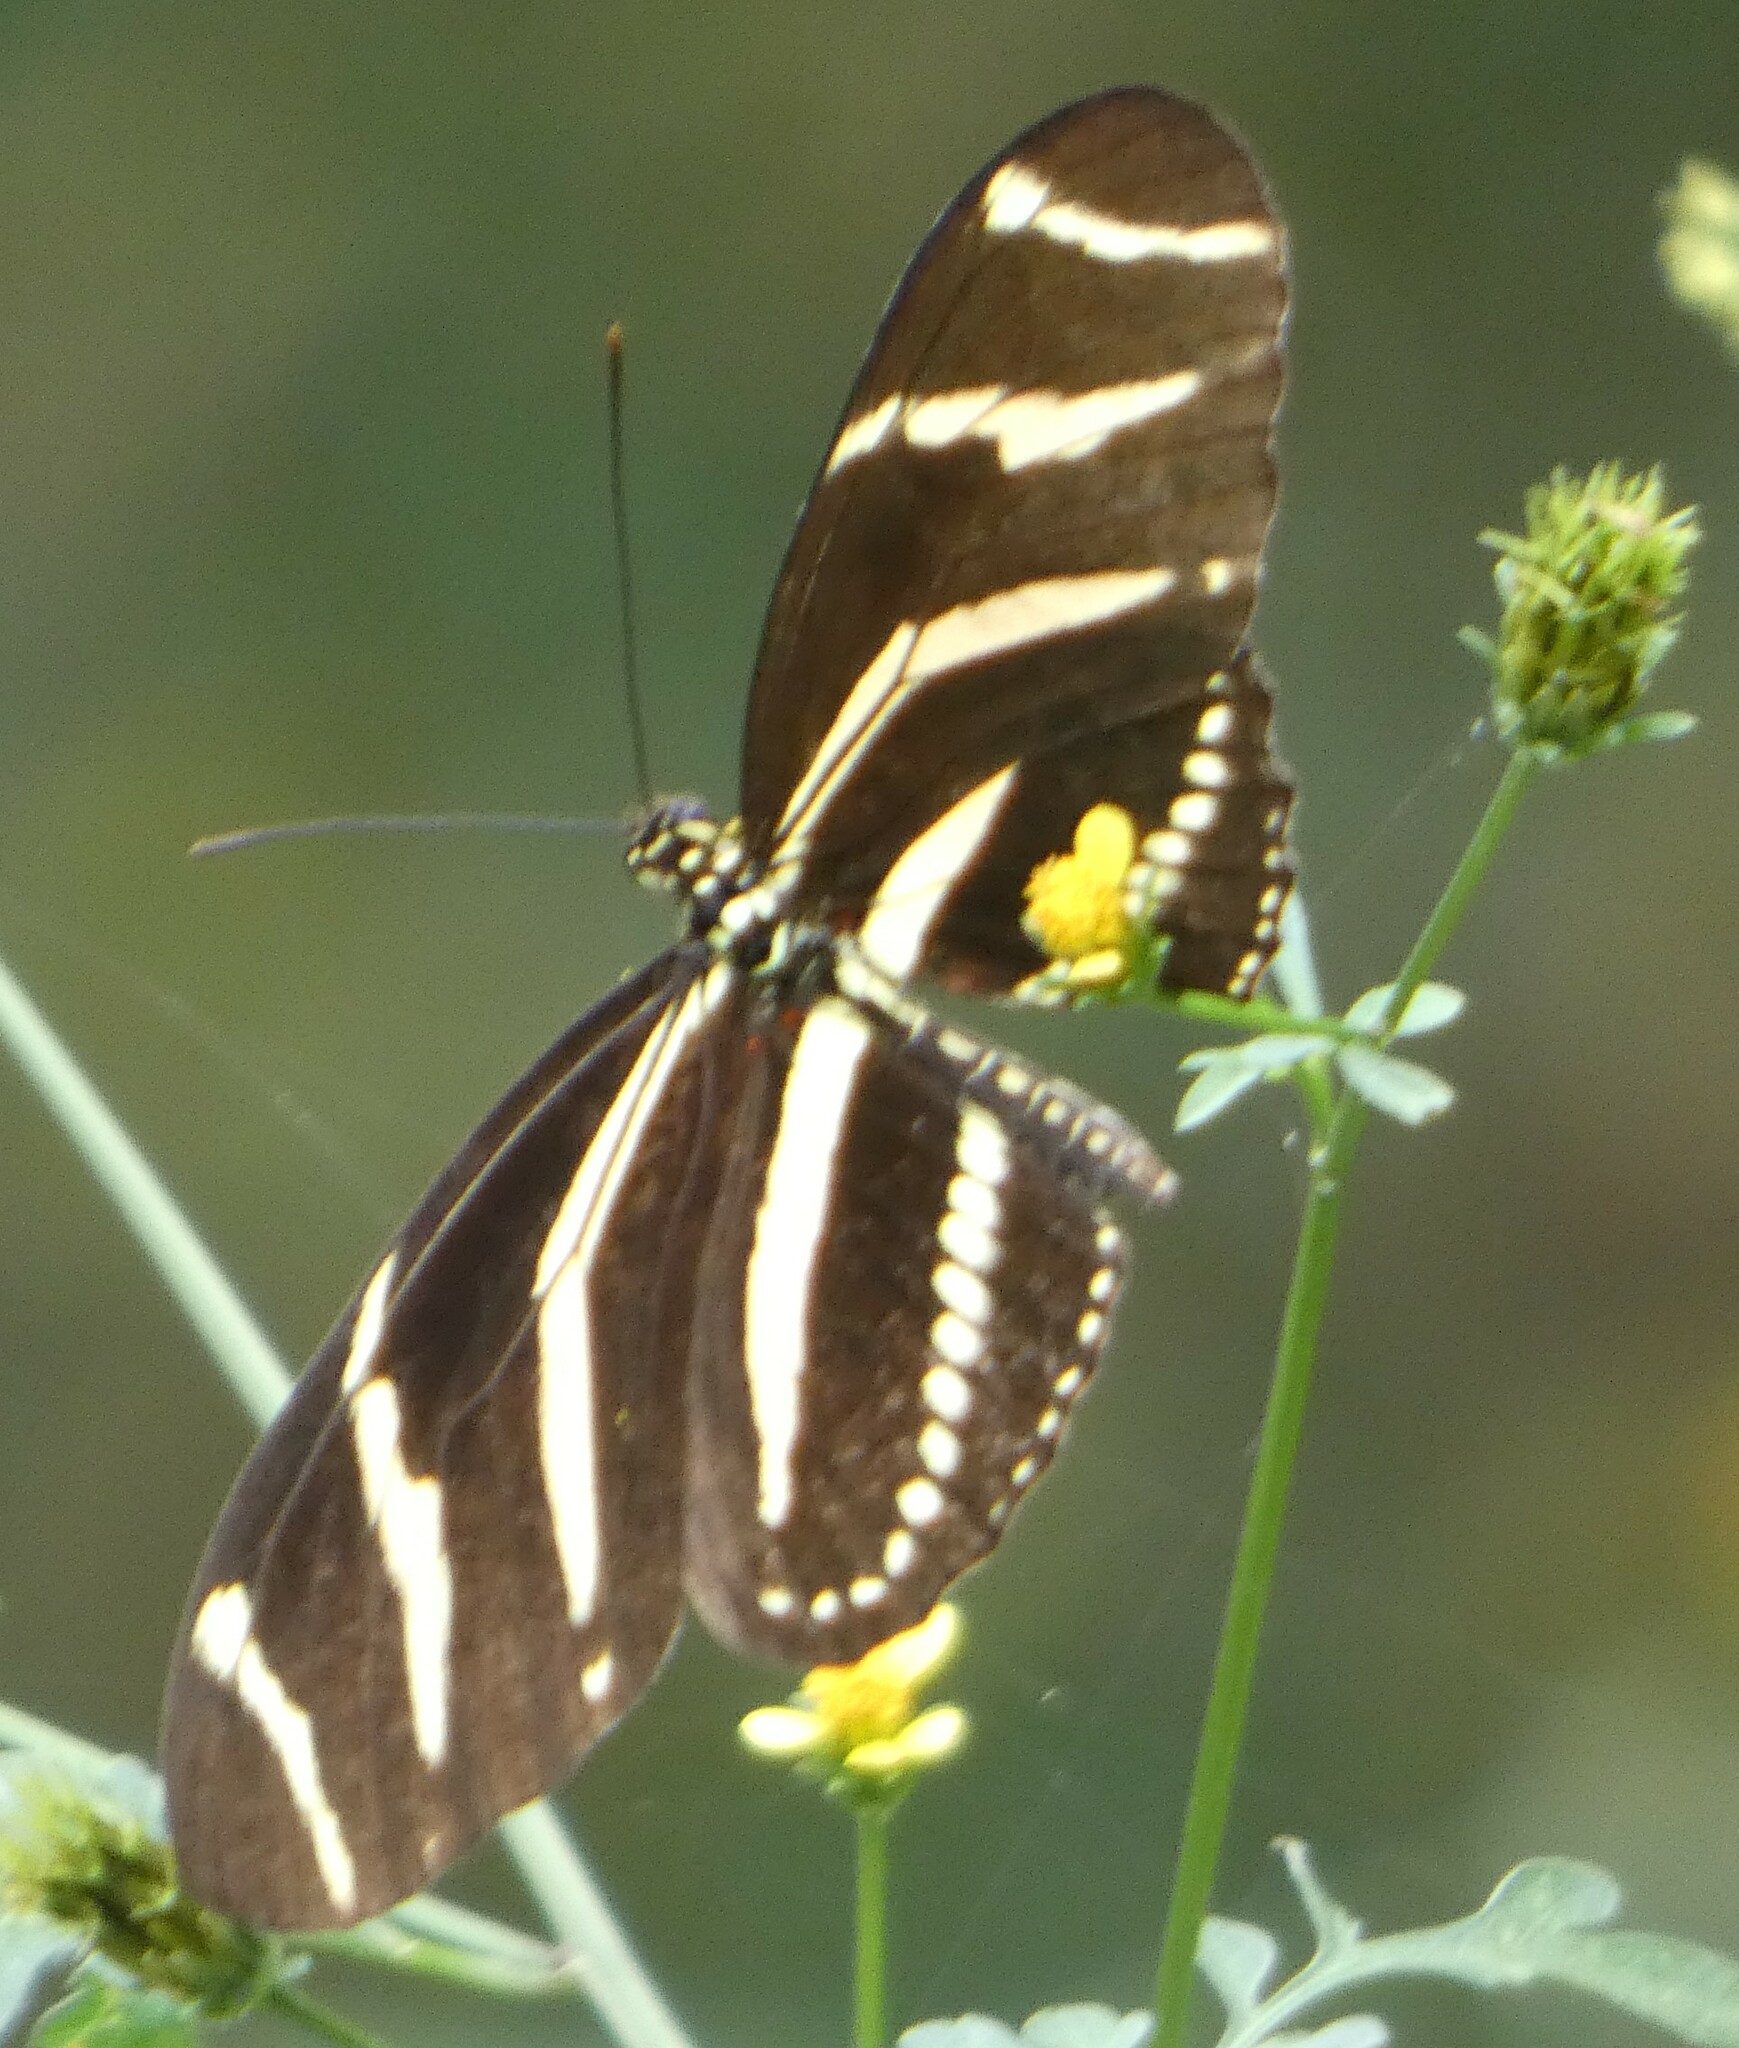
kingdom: Animalia
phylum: Arthropoda
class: Insecta
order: Lepidoptera
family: Nymphalidae
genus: Heliconius
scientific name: Heliconius charithonia
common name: Zebra long wing
